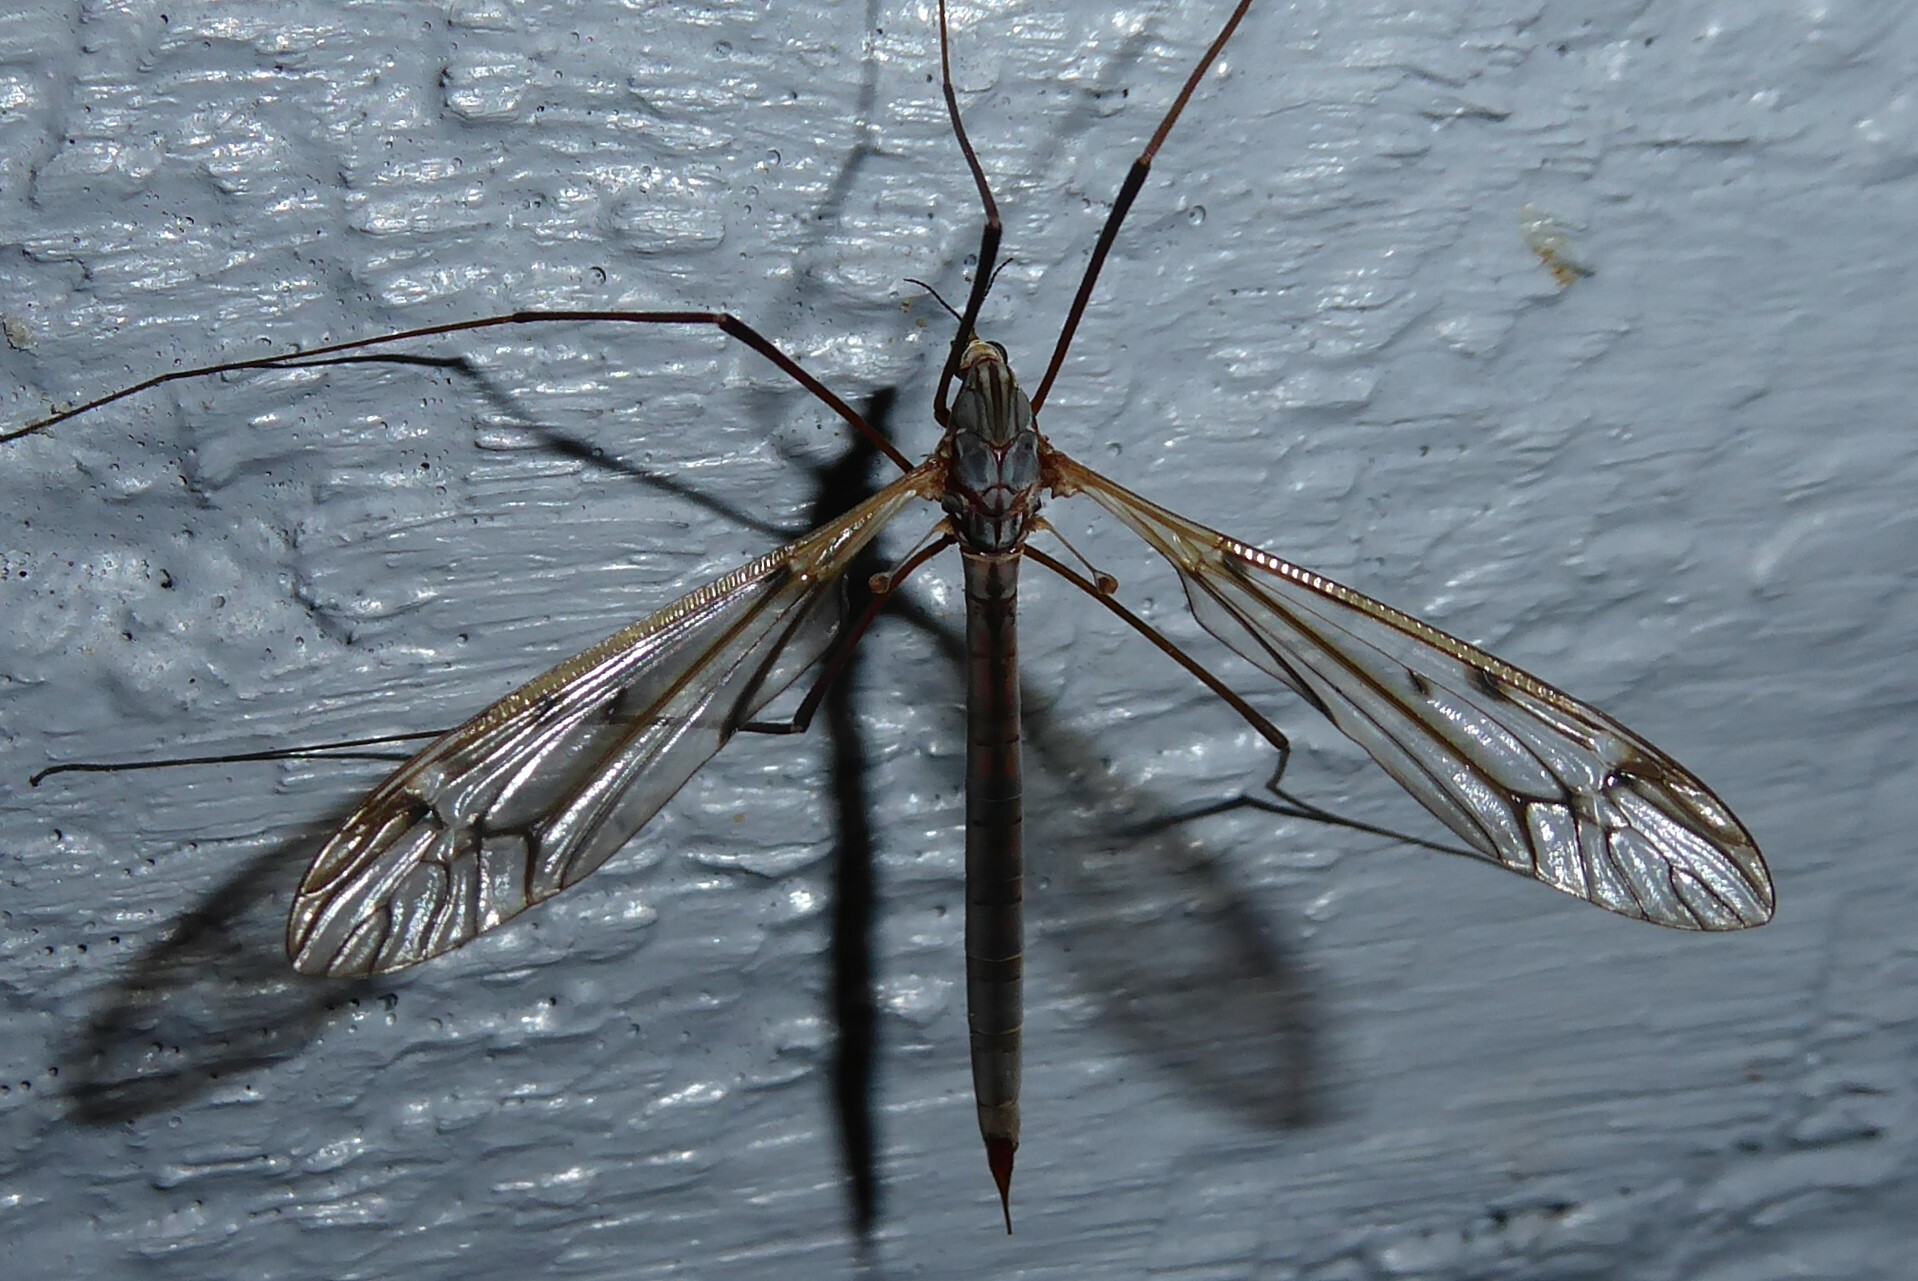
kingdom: Animalia
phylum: Arthropoda
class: Insecta
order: Diptera
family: Tipulidae
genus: Zelandotipula
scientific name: Zelandotipula novarae
